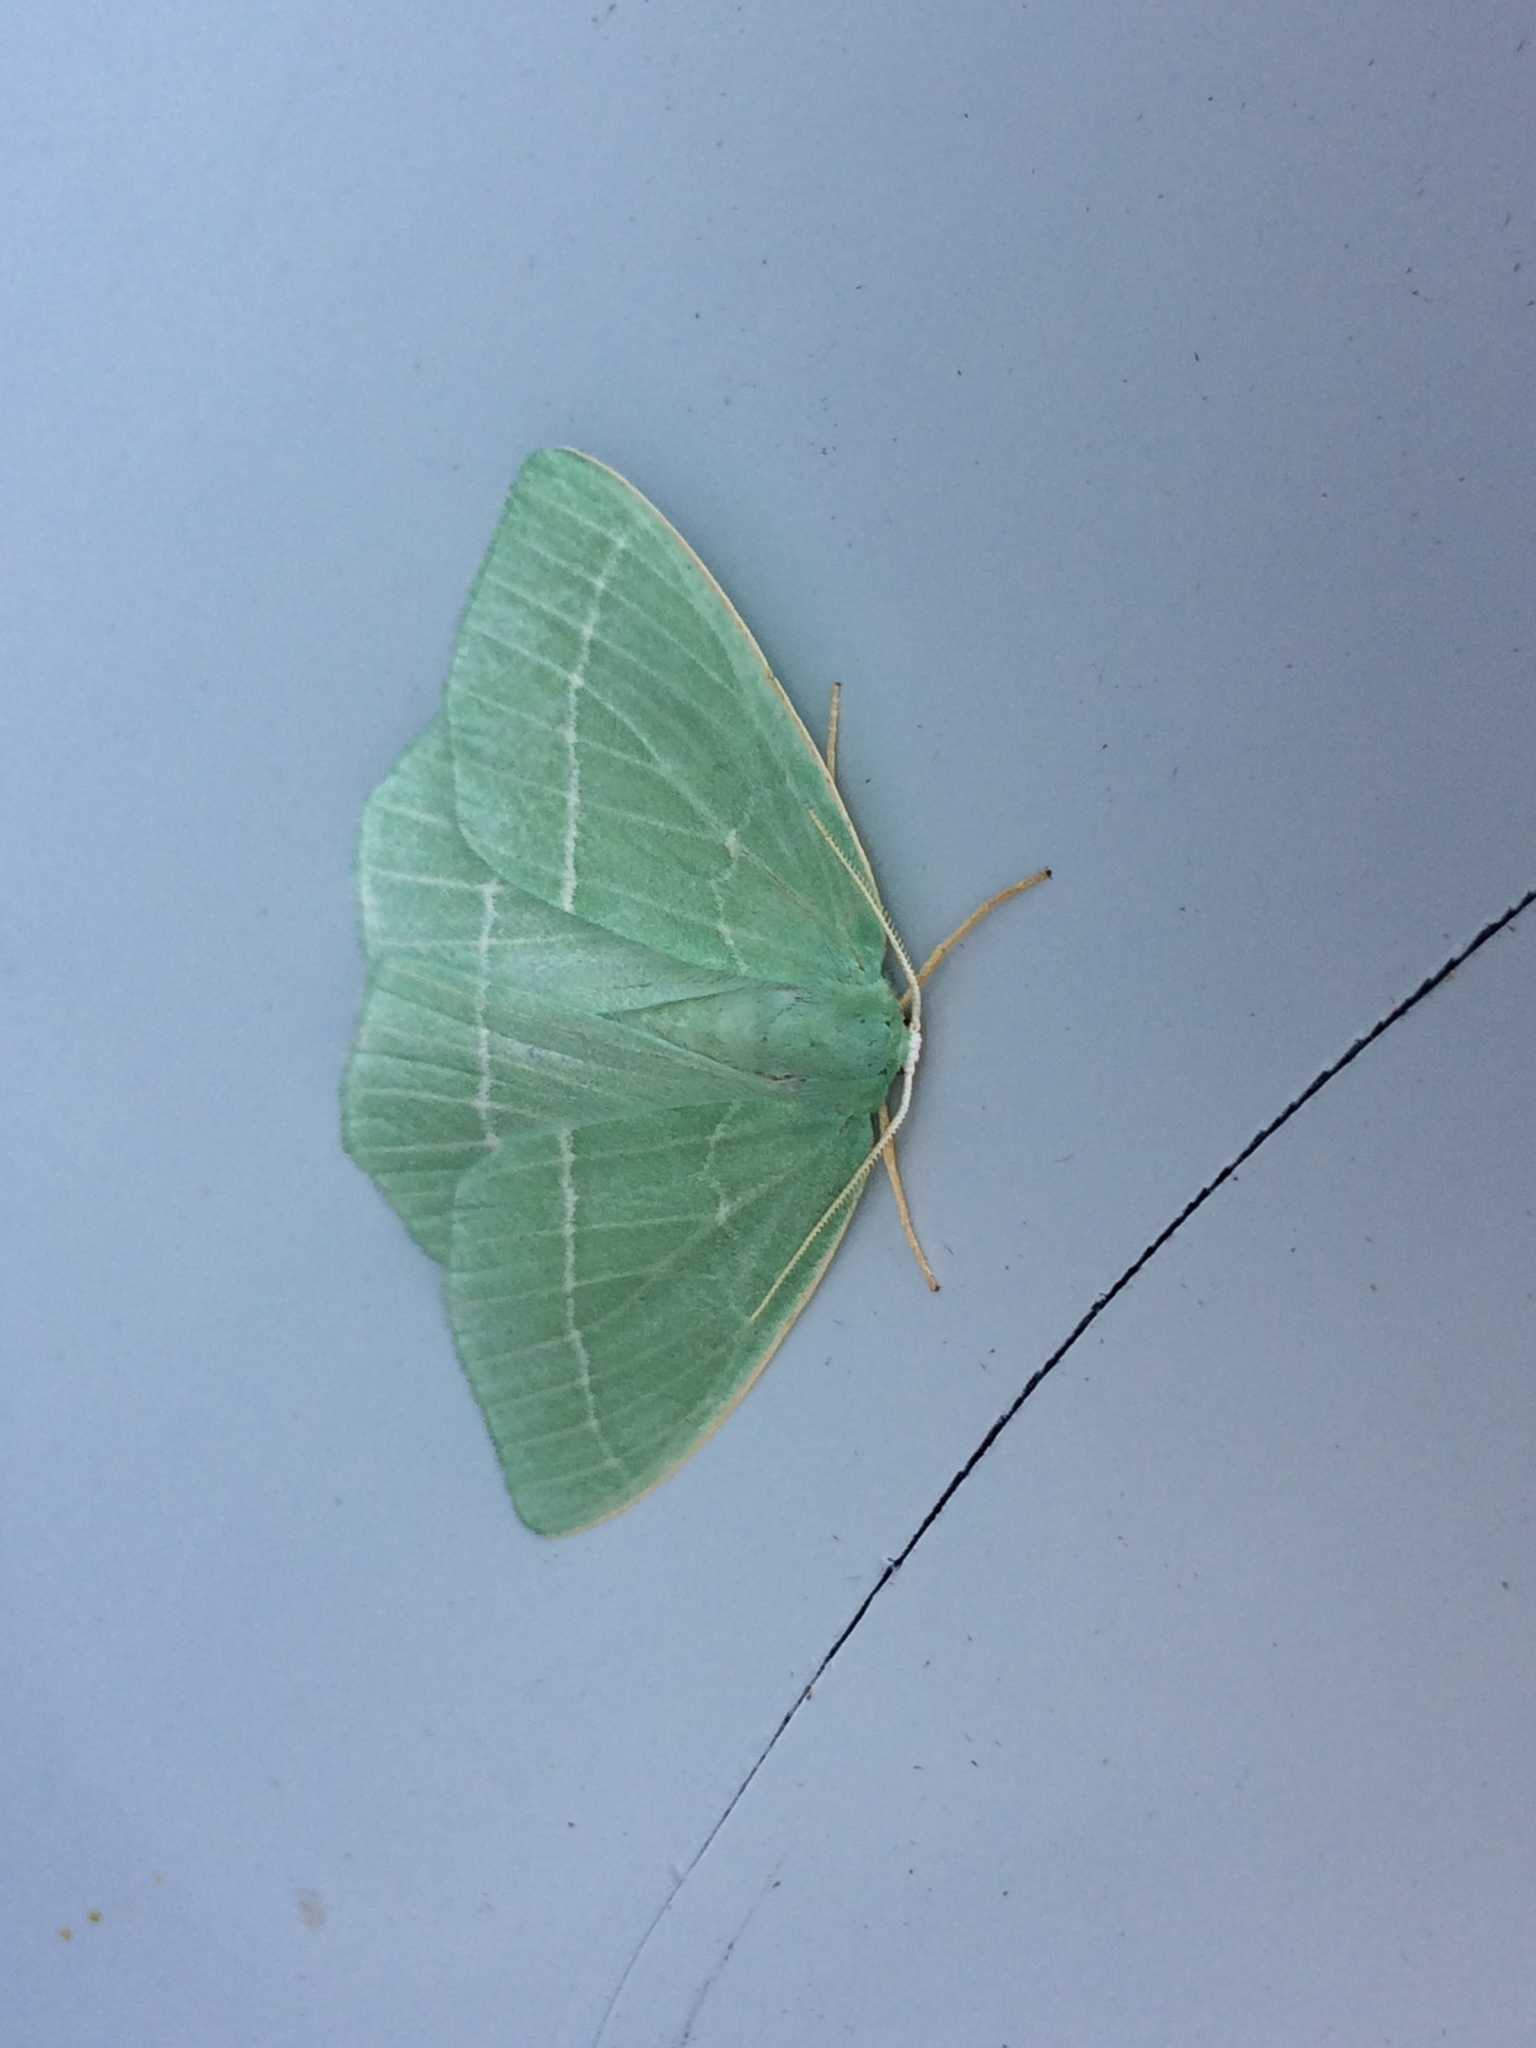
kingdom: Animalia
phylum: Arthropoda
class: Insecta
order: Lepidoptera
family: Geometridae
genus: Hemistola
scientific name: Hemistola chrysoprasaria
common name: Small emerald
